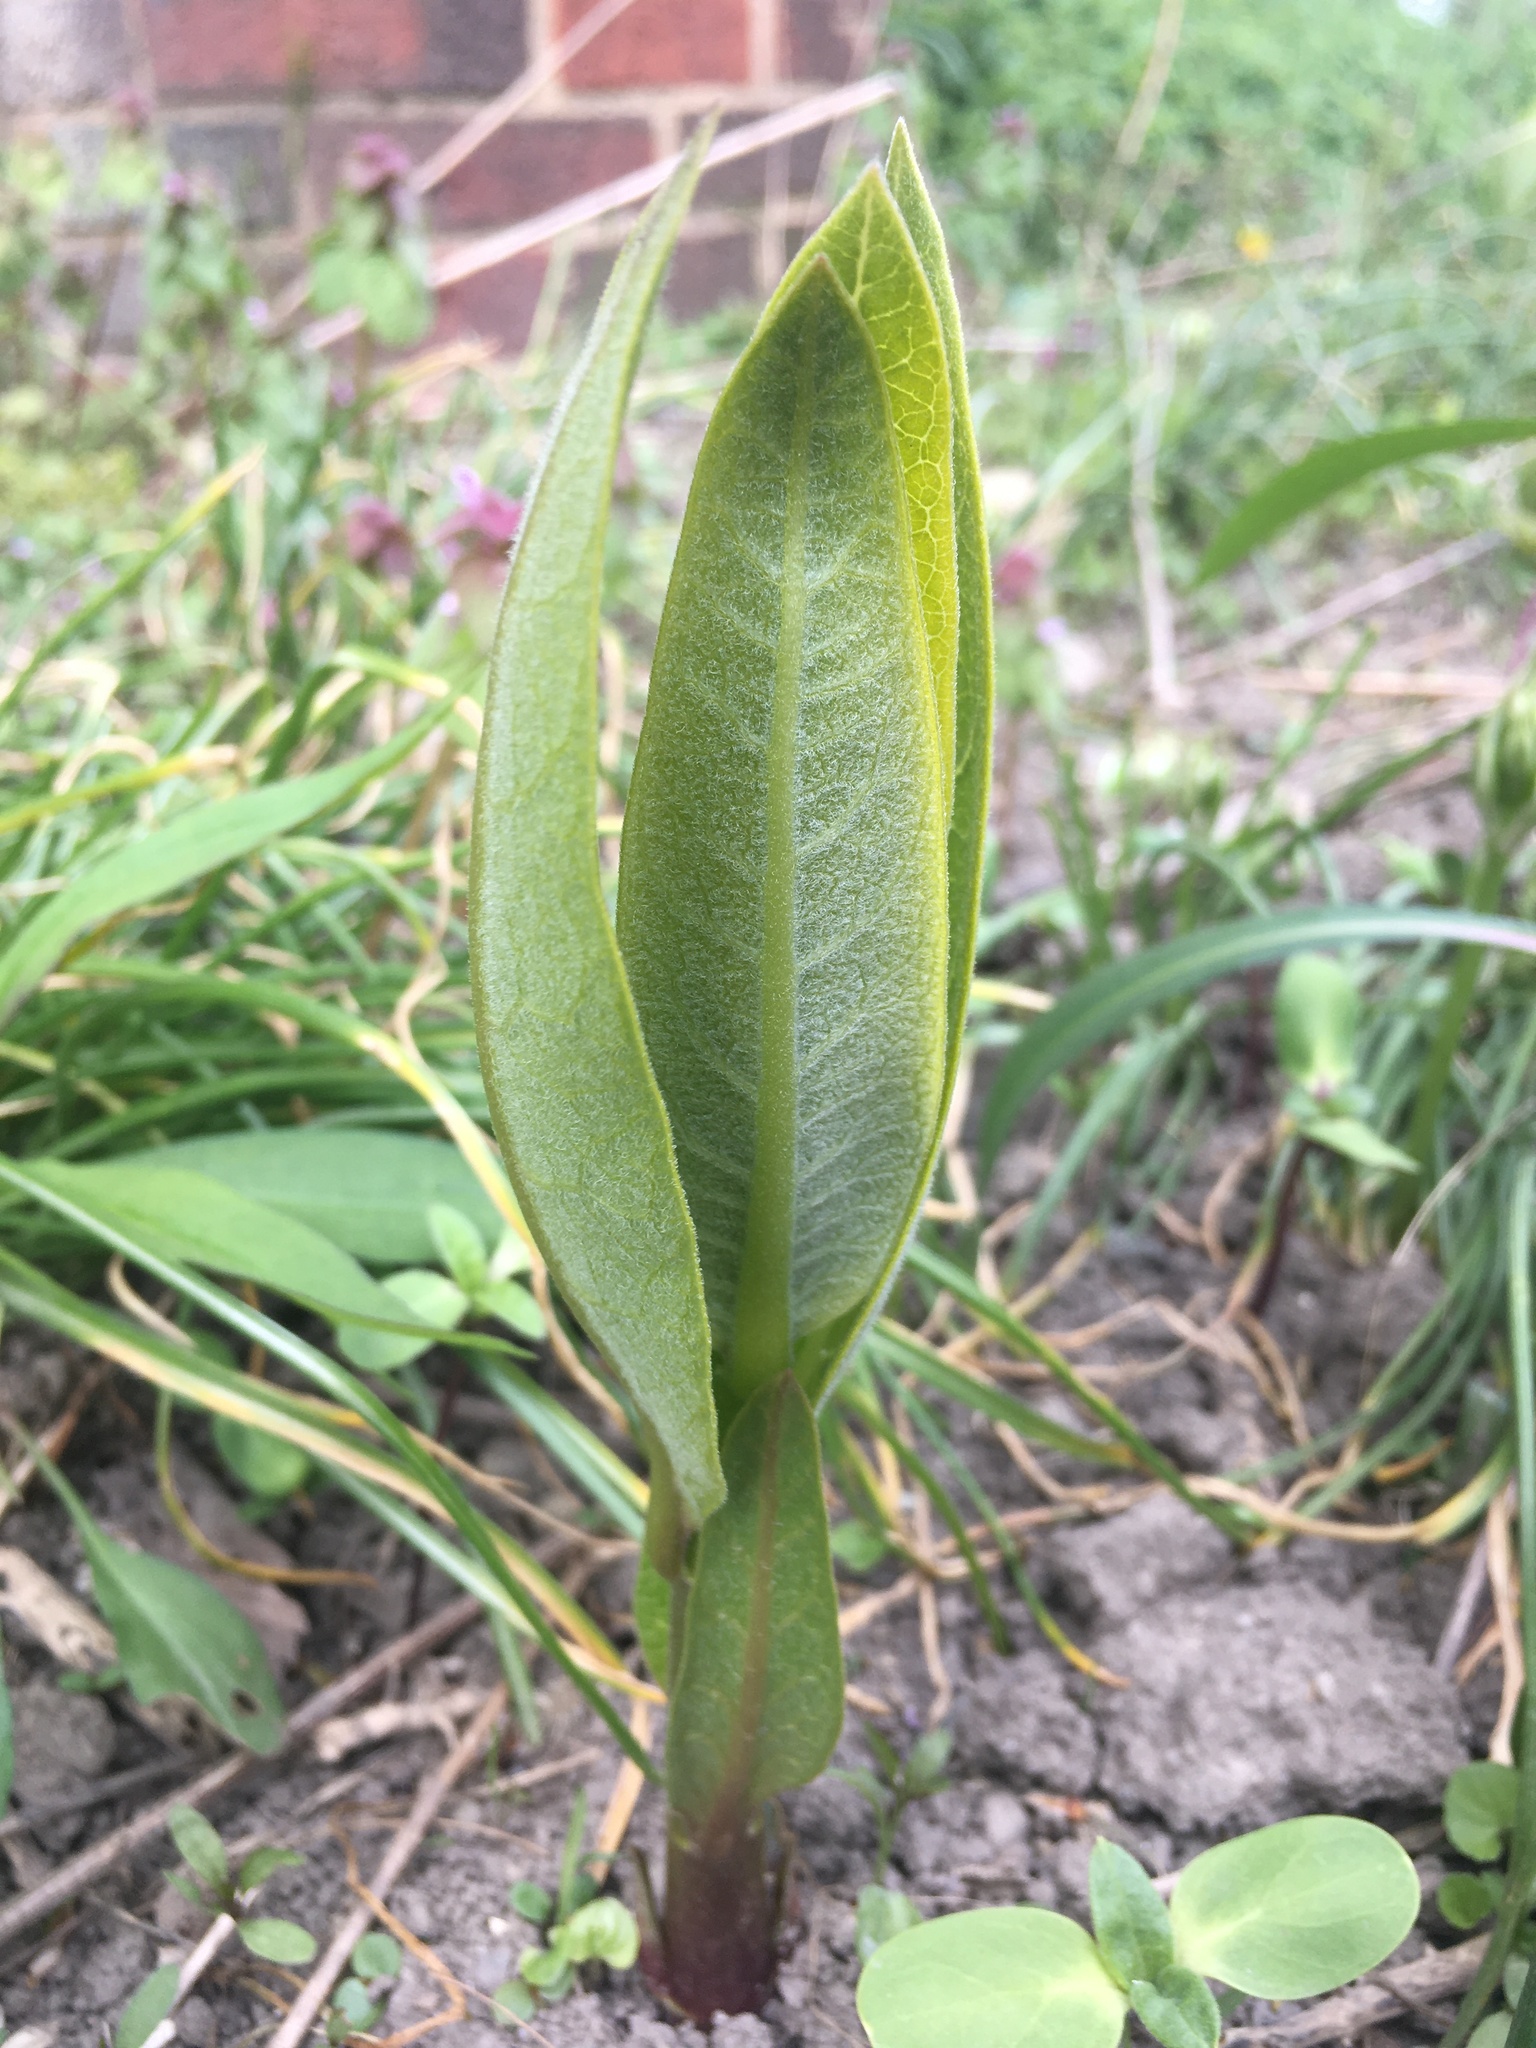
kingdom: Plantae
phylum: Tracheophyta
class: Magnoliopsida
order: Gentianales
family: Apocynaceae
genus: Asclepias
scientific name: Asclepias syriaca
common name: Common milkweed
